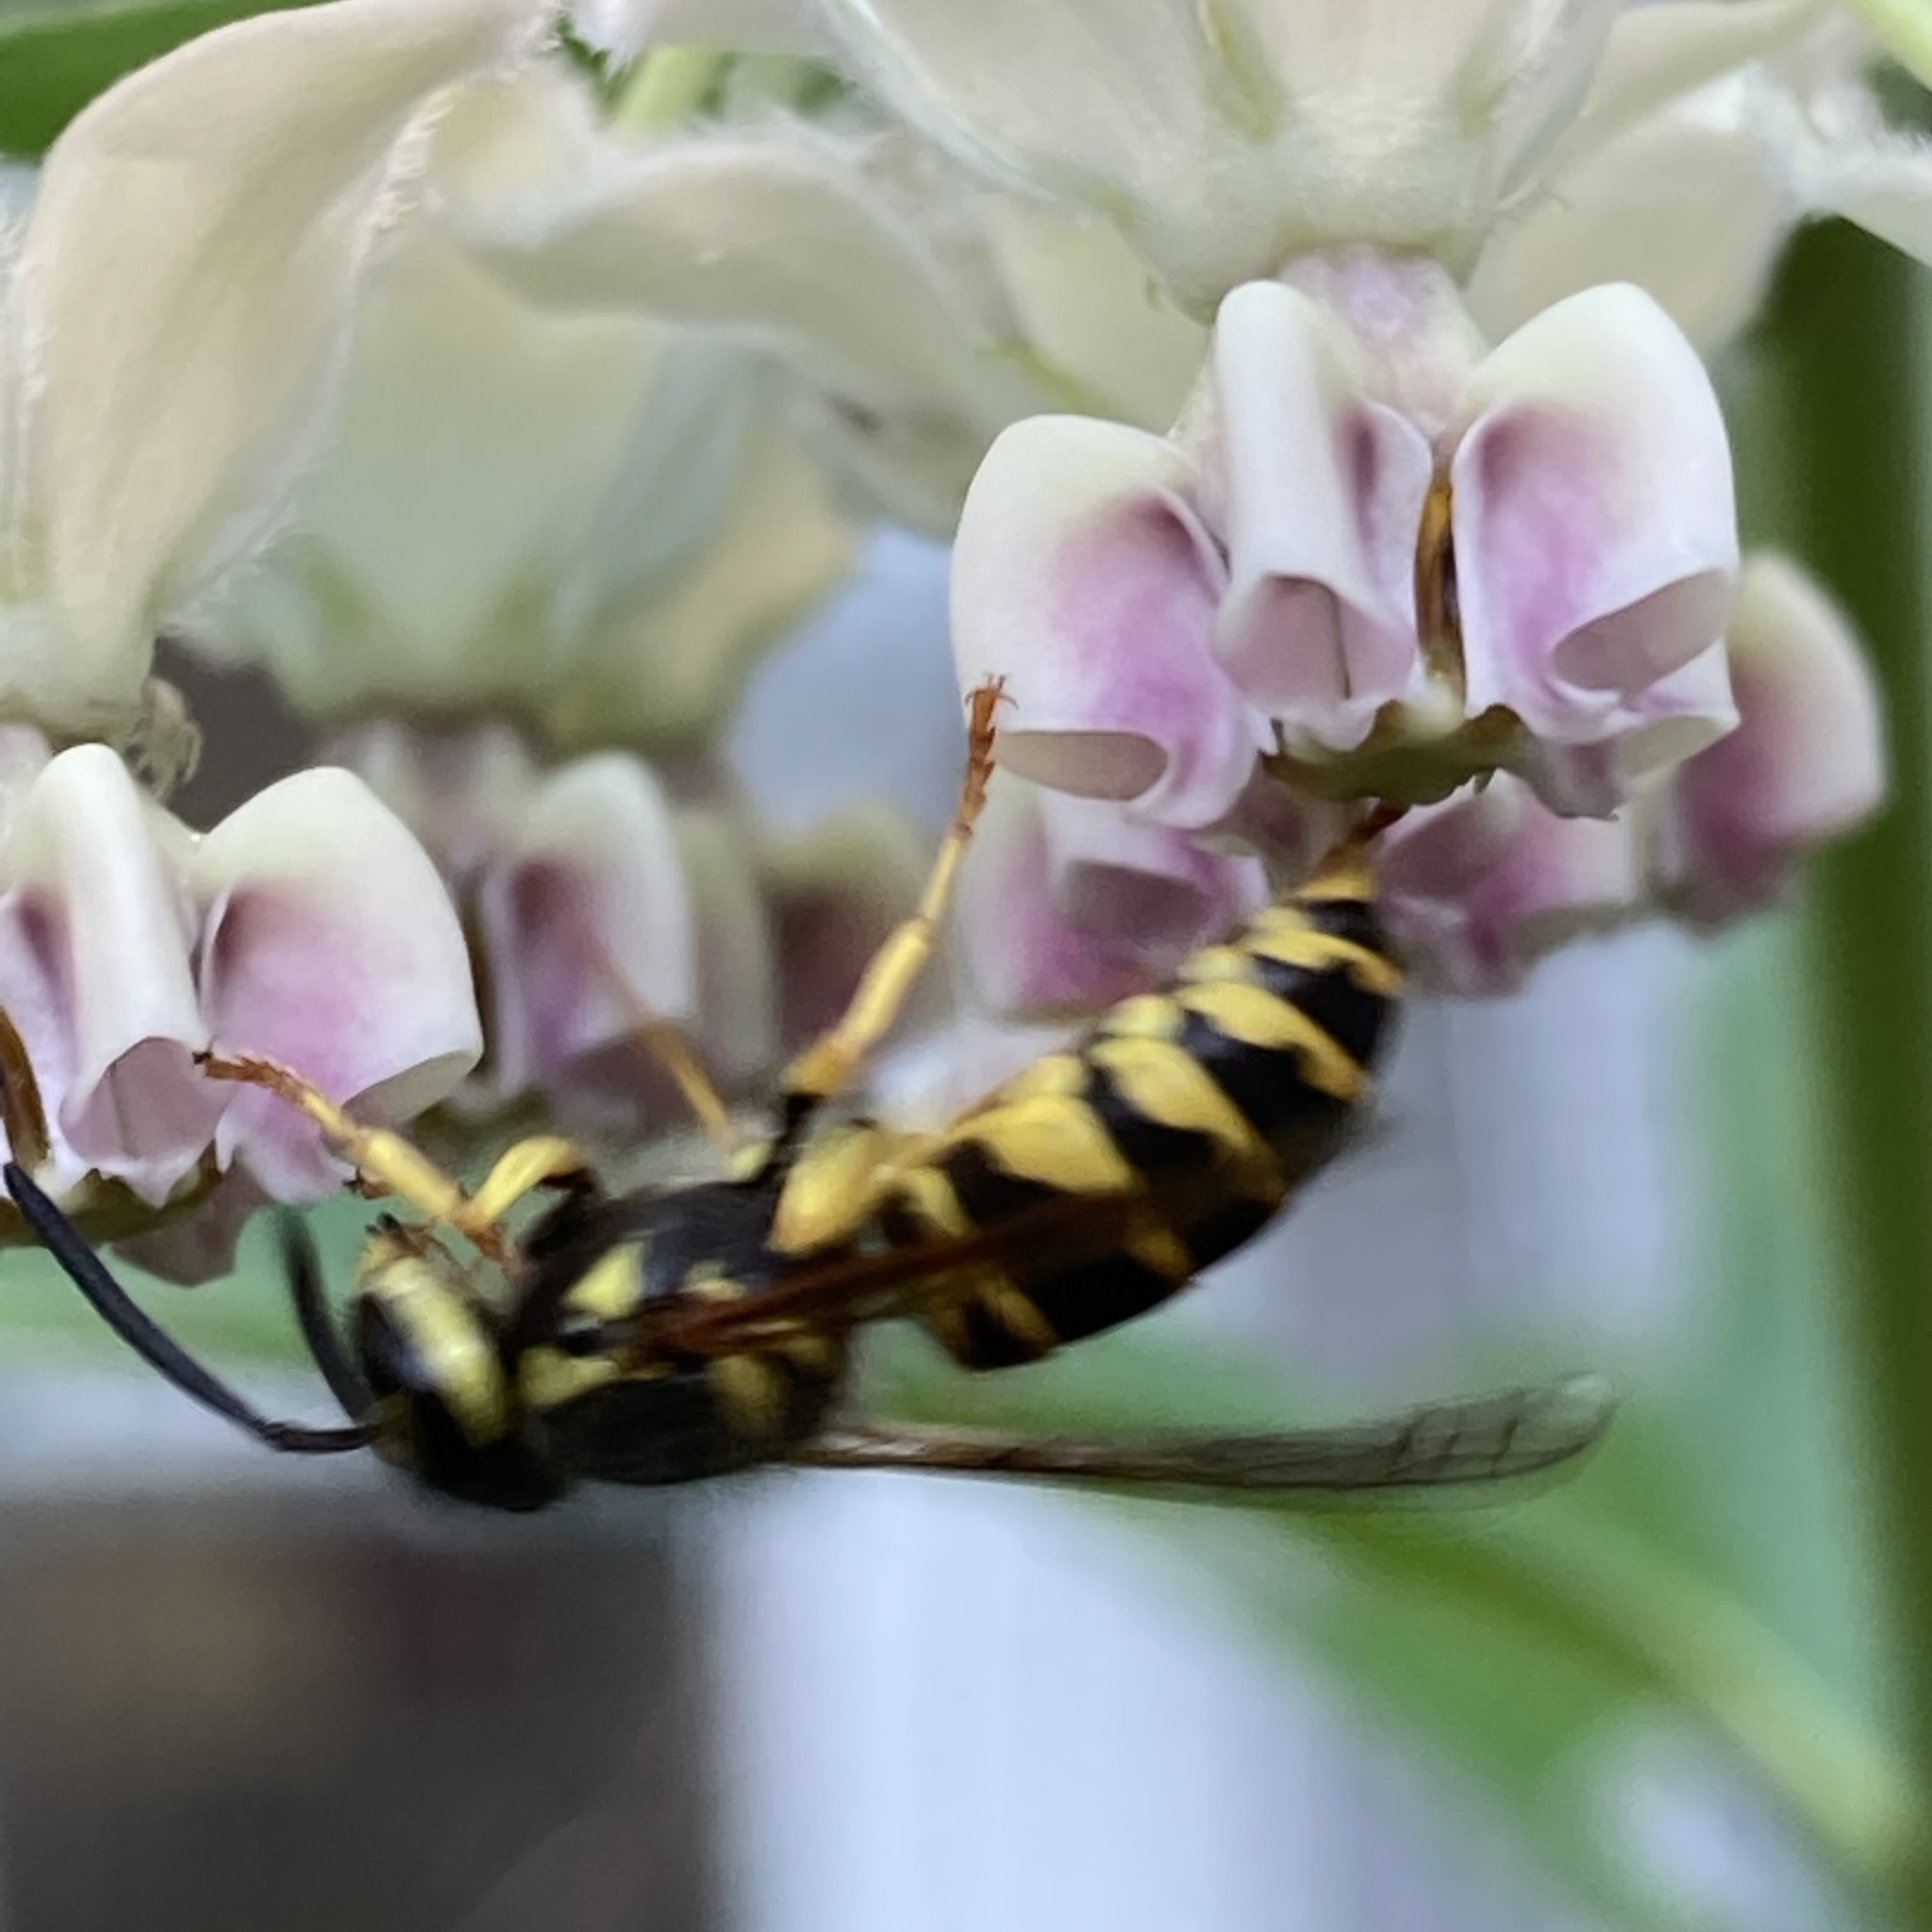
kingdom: Animalia
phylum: Arthropoda
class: Insecta
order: Hymenoptera
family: Vespidae
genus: Vespula
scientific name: Vespula maculifrons
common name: Eastern yellowjacket
